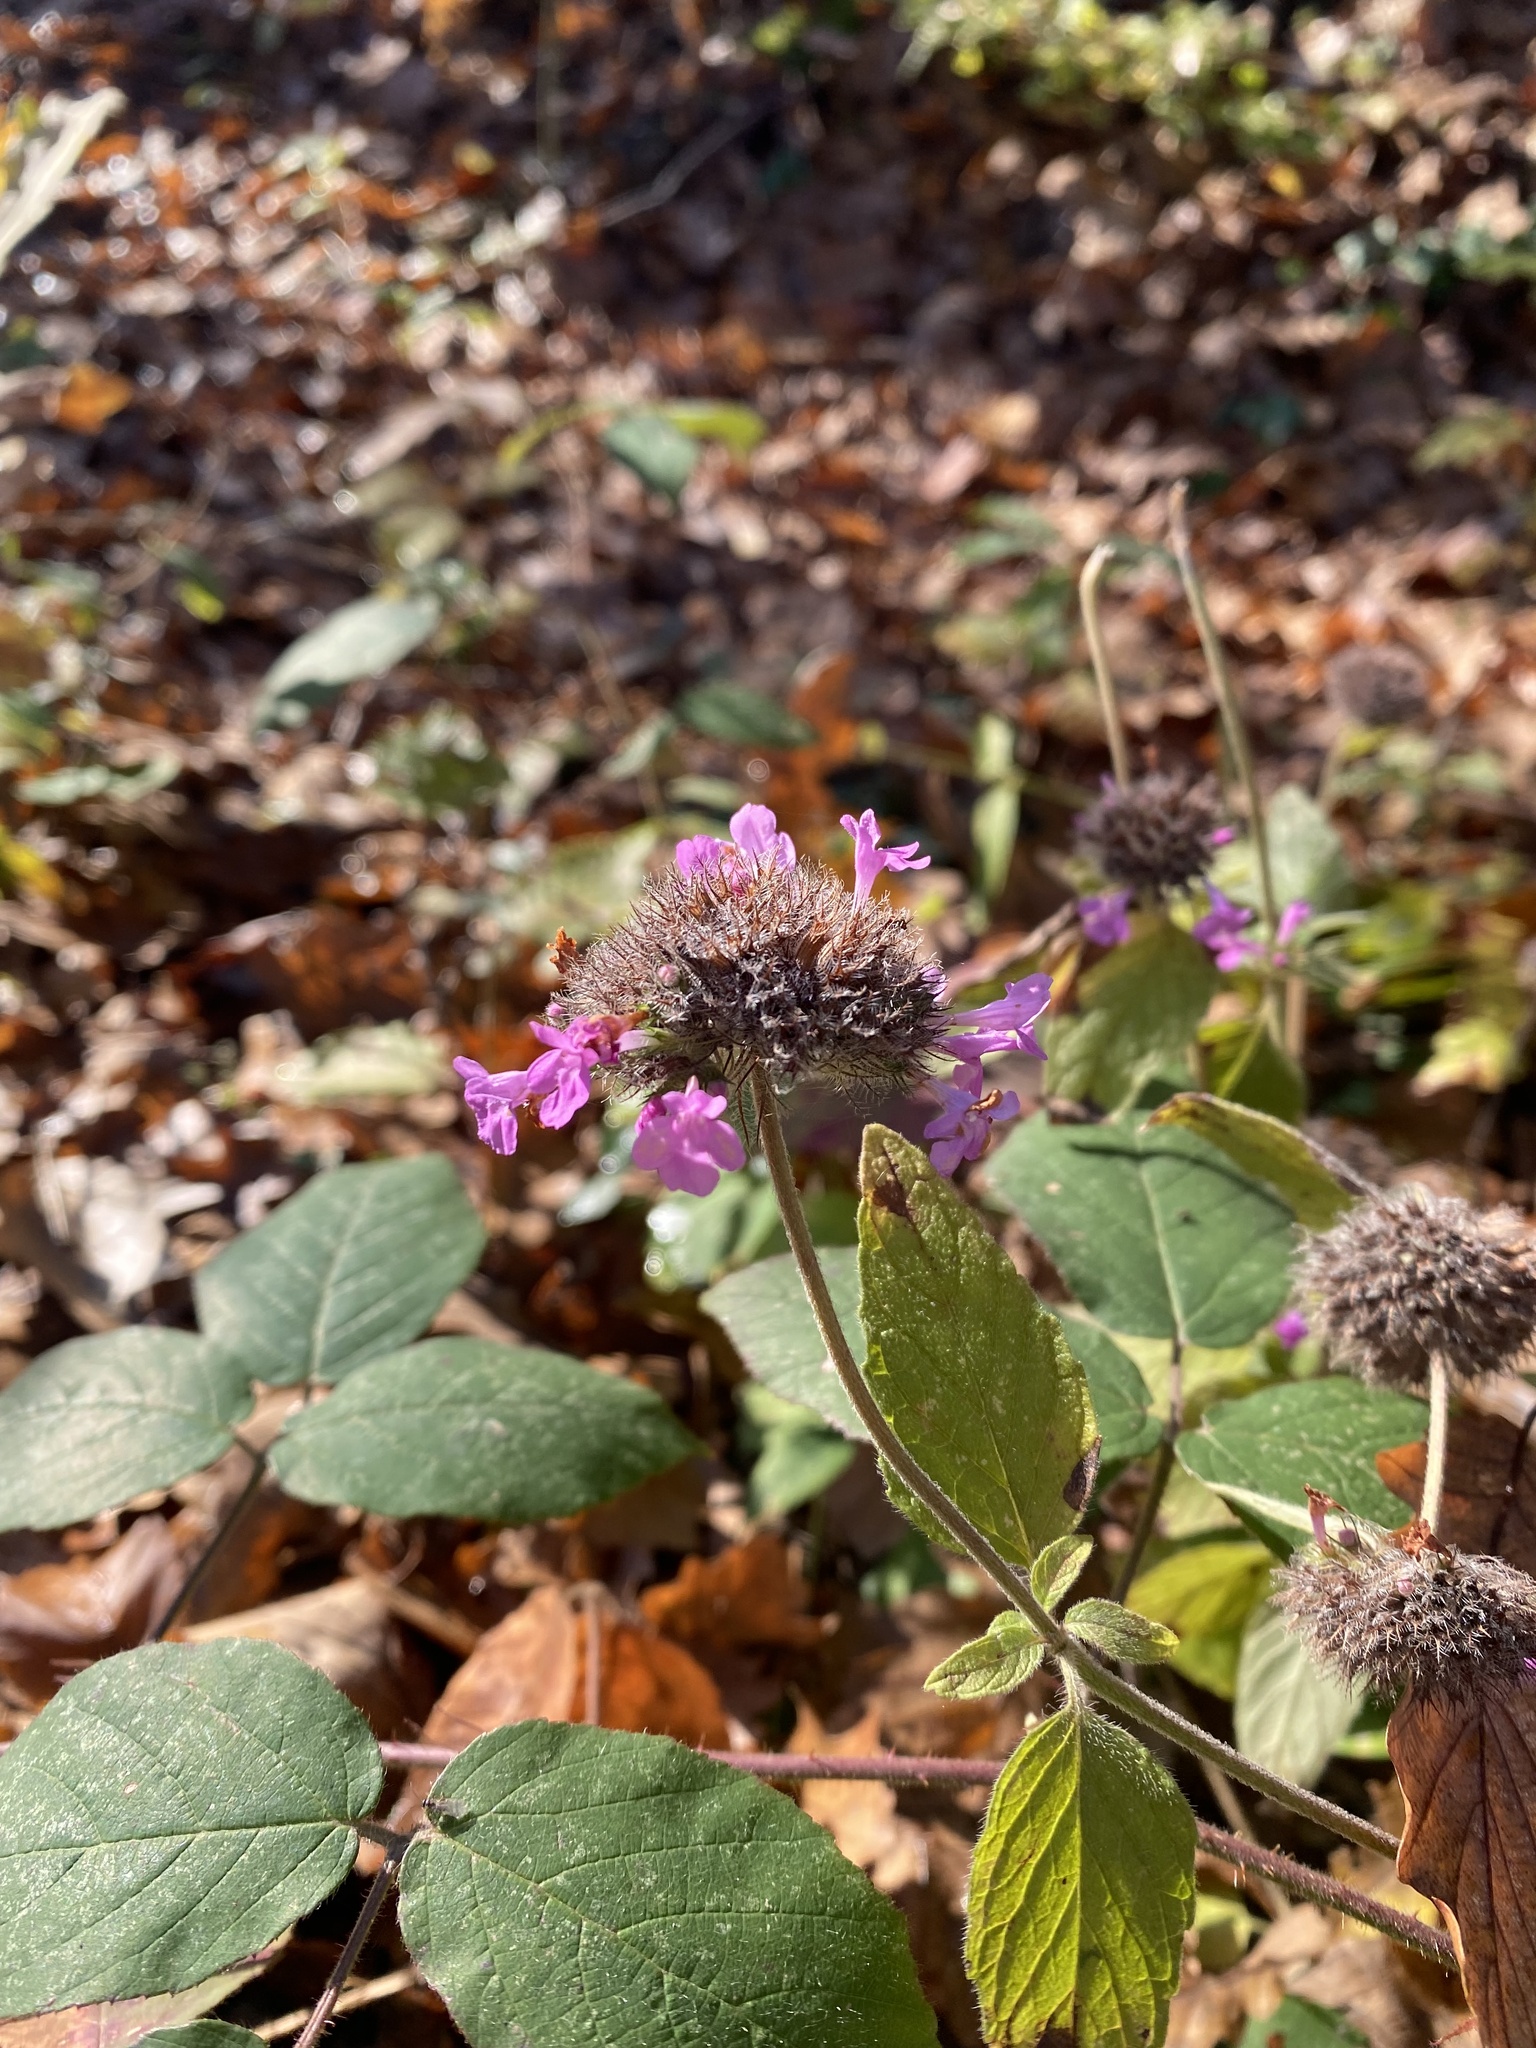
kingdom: Plantae
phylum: Tracheophyta
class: Magnoliopsida
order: Lamiales
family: Lamiaceae
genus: Clinopodium
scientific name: Clinopodium caucasicum
